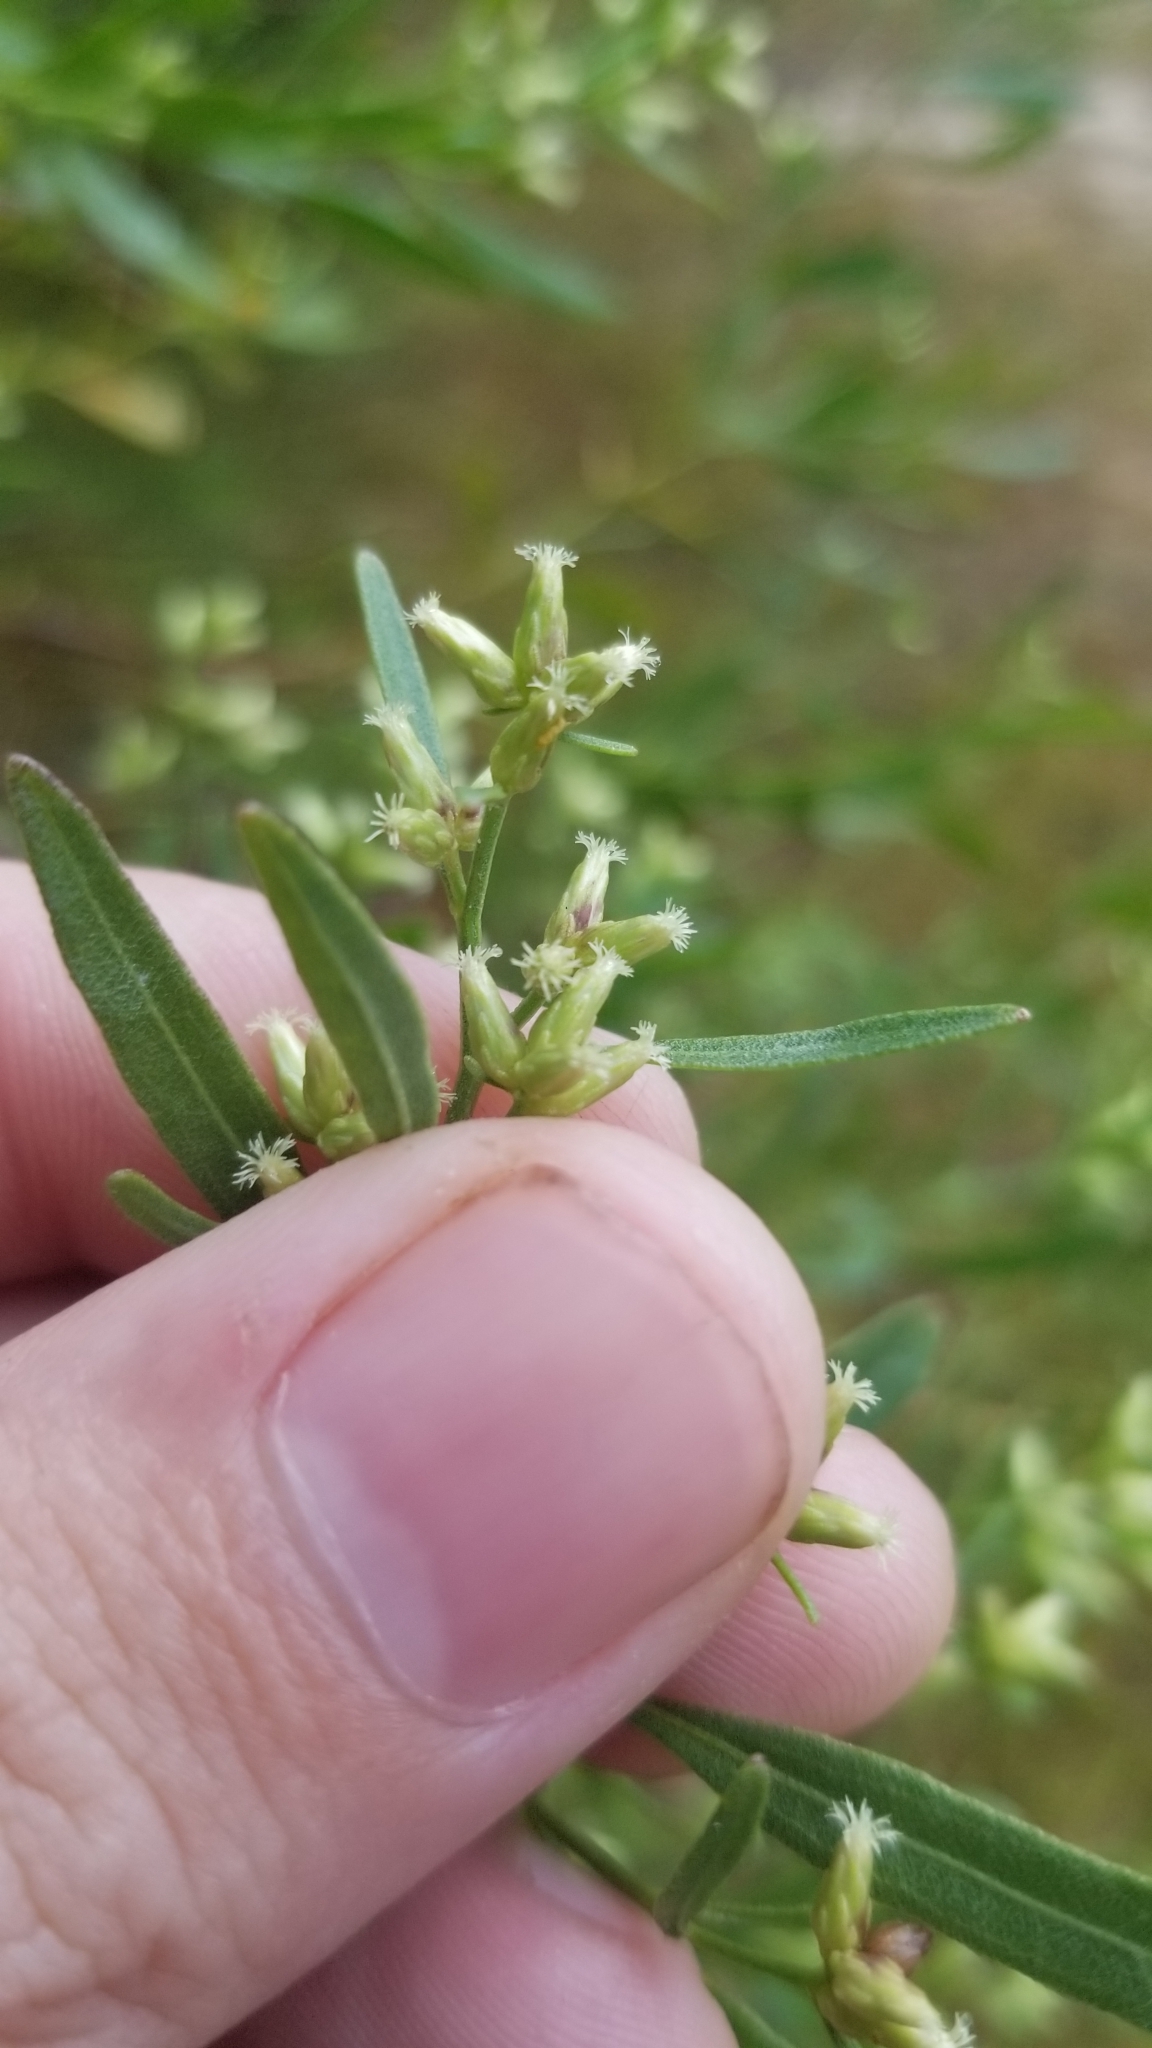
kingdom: Plantae
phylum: Tracheophyta
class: Magnoliopsida
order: Asterales
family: Asteraceae
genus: Baccharis
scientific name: Baccharis halimifolia
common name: Eastern baccharis
